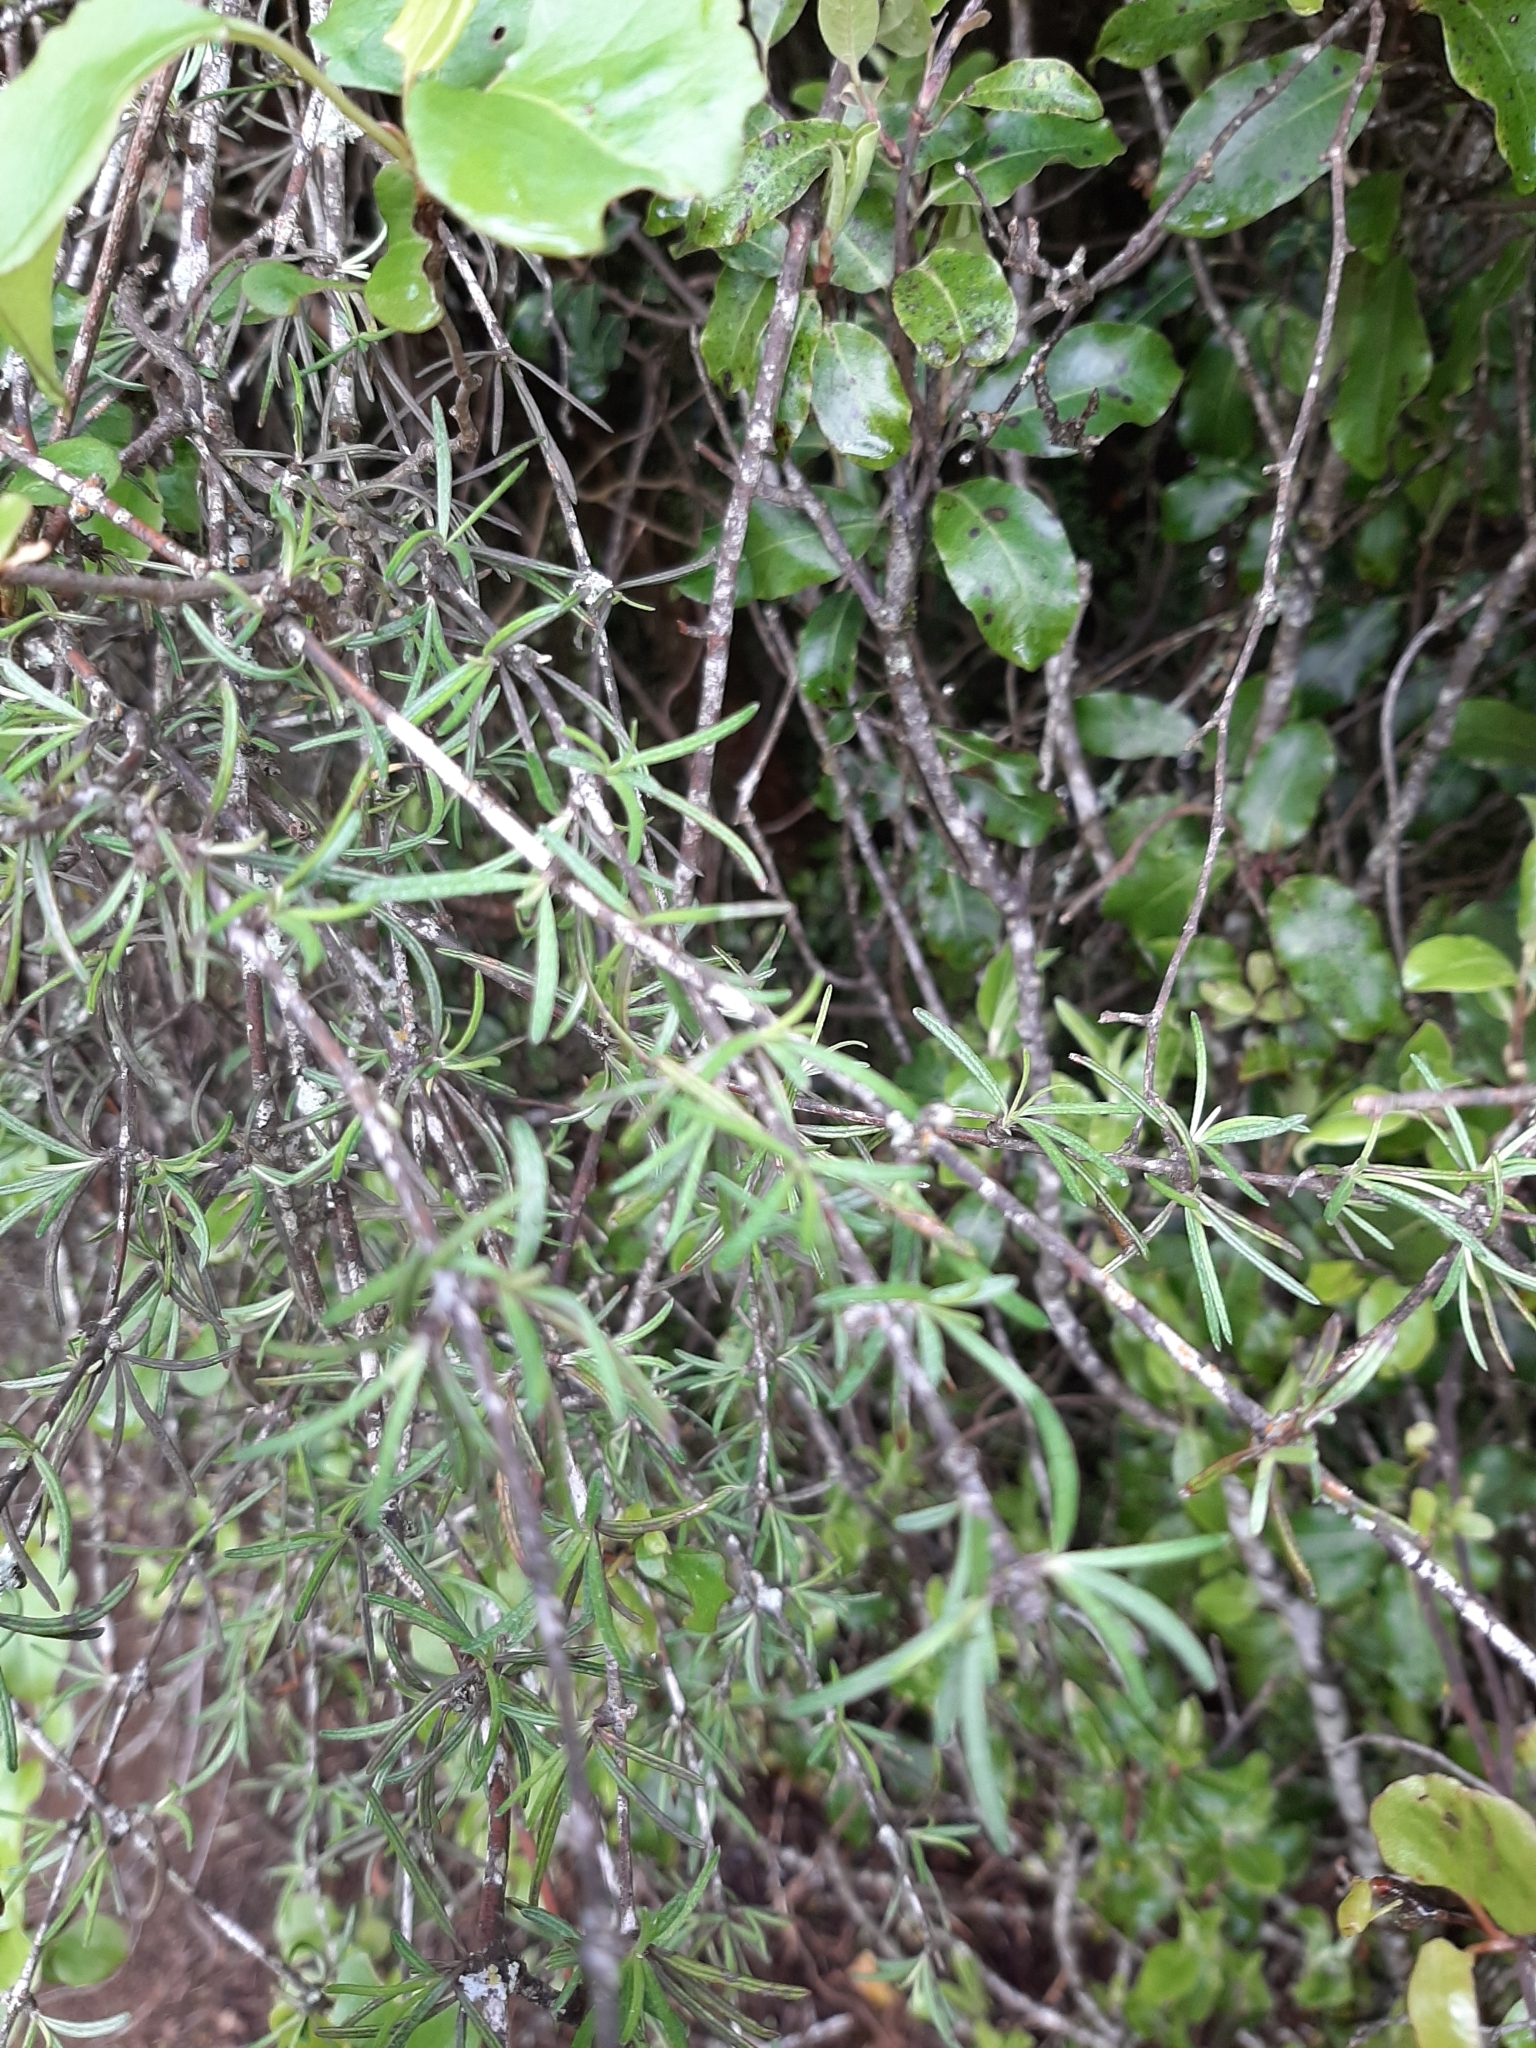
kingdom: Plantae
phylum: Tracheophyta
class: Magnoliopsida
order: Asterales
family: Asteraceae
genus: Olearia
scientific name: Olearia lineata
